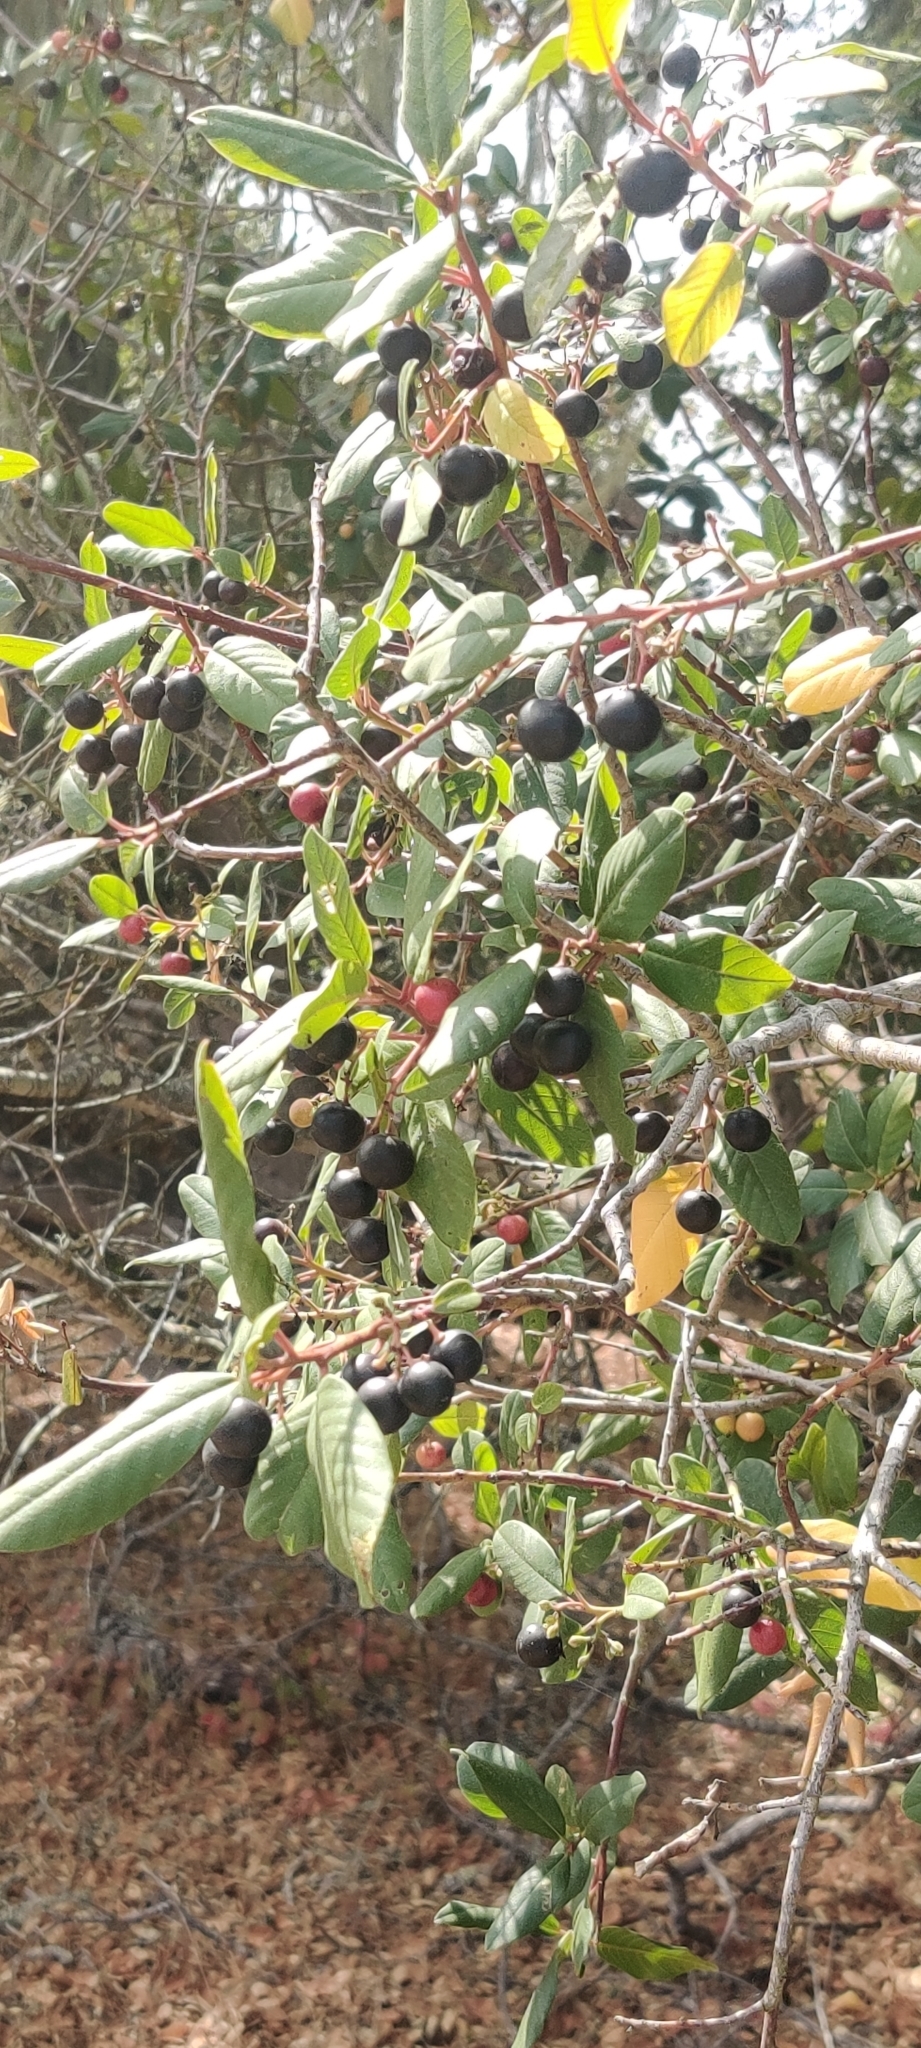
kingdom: Plantae
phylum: Tracheophyta
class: Magnoliopsida
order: Rosales
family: Rhamnaceae
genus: Frangula
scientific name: Frangula californica
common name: California buckthorn
